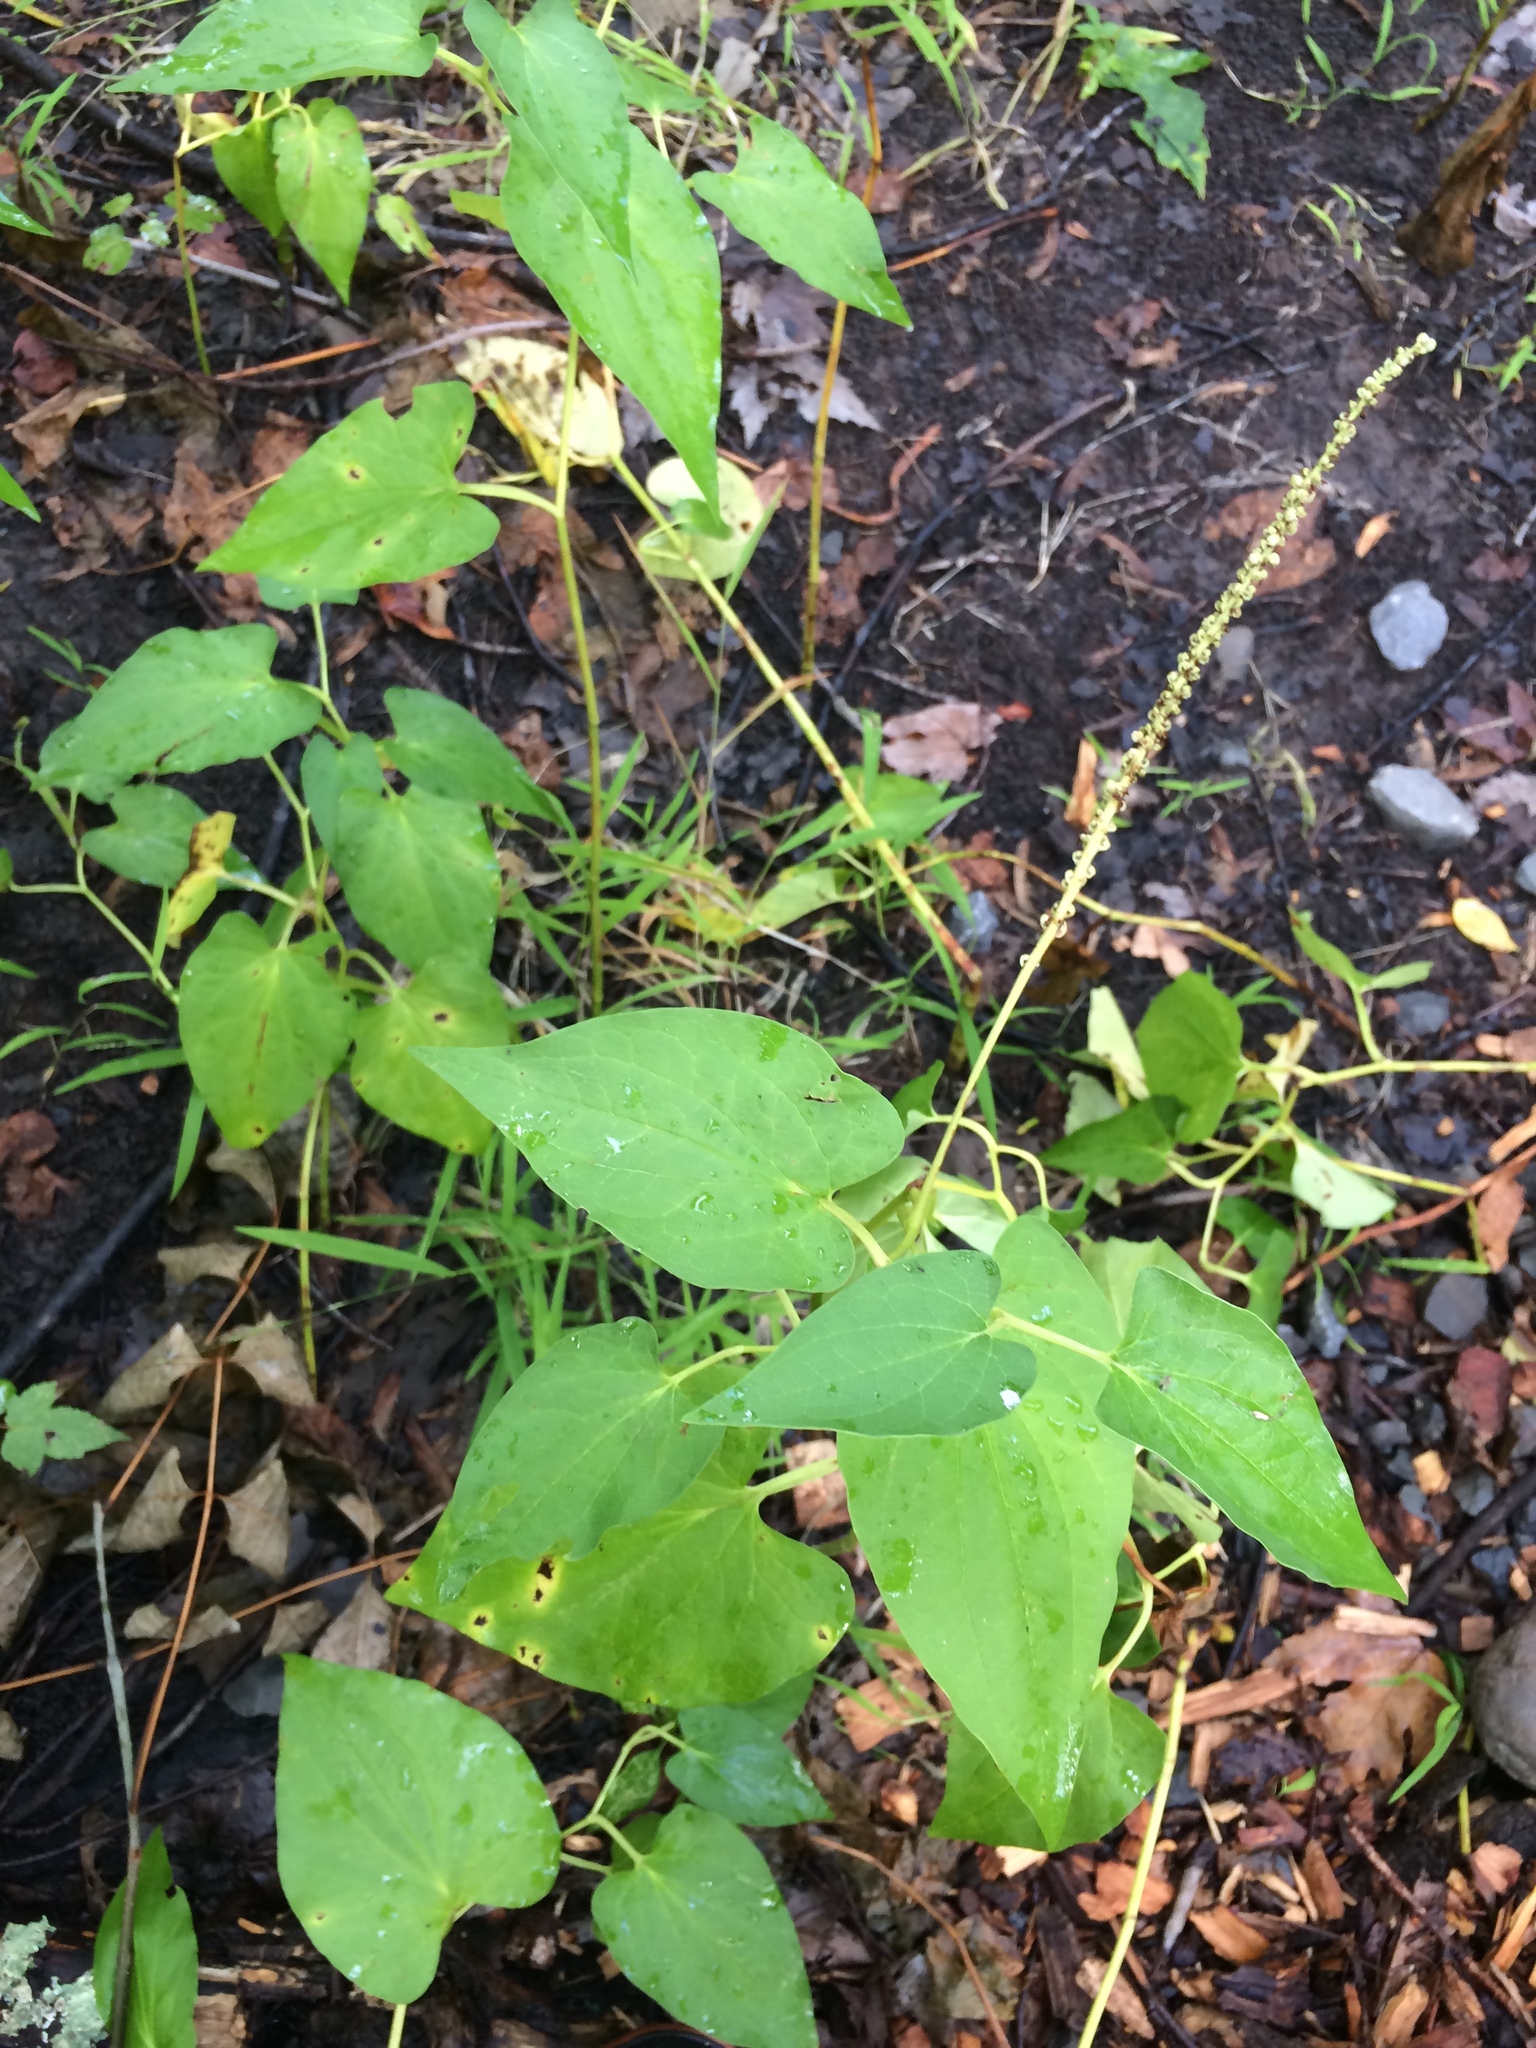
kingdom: Plantae
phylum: Tracheophyta
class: Magnoliopsida
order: Piperales
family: Saururaceae
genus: Saururus
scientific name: Saururus cernuus
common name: Lizard's-tail
